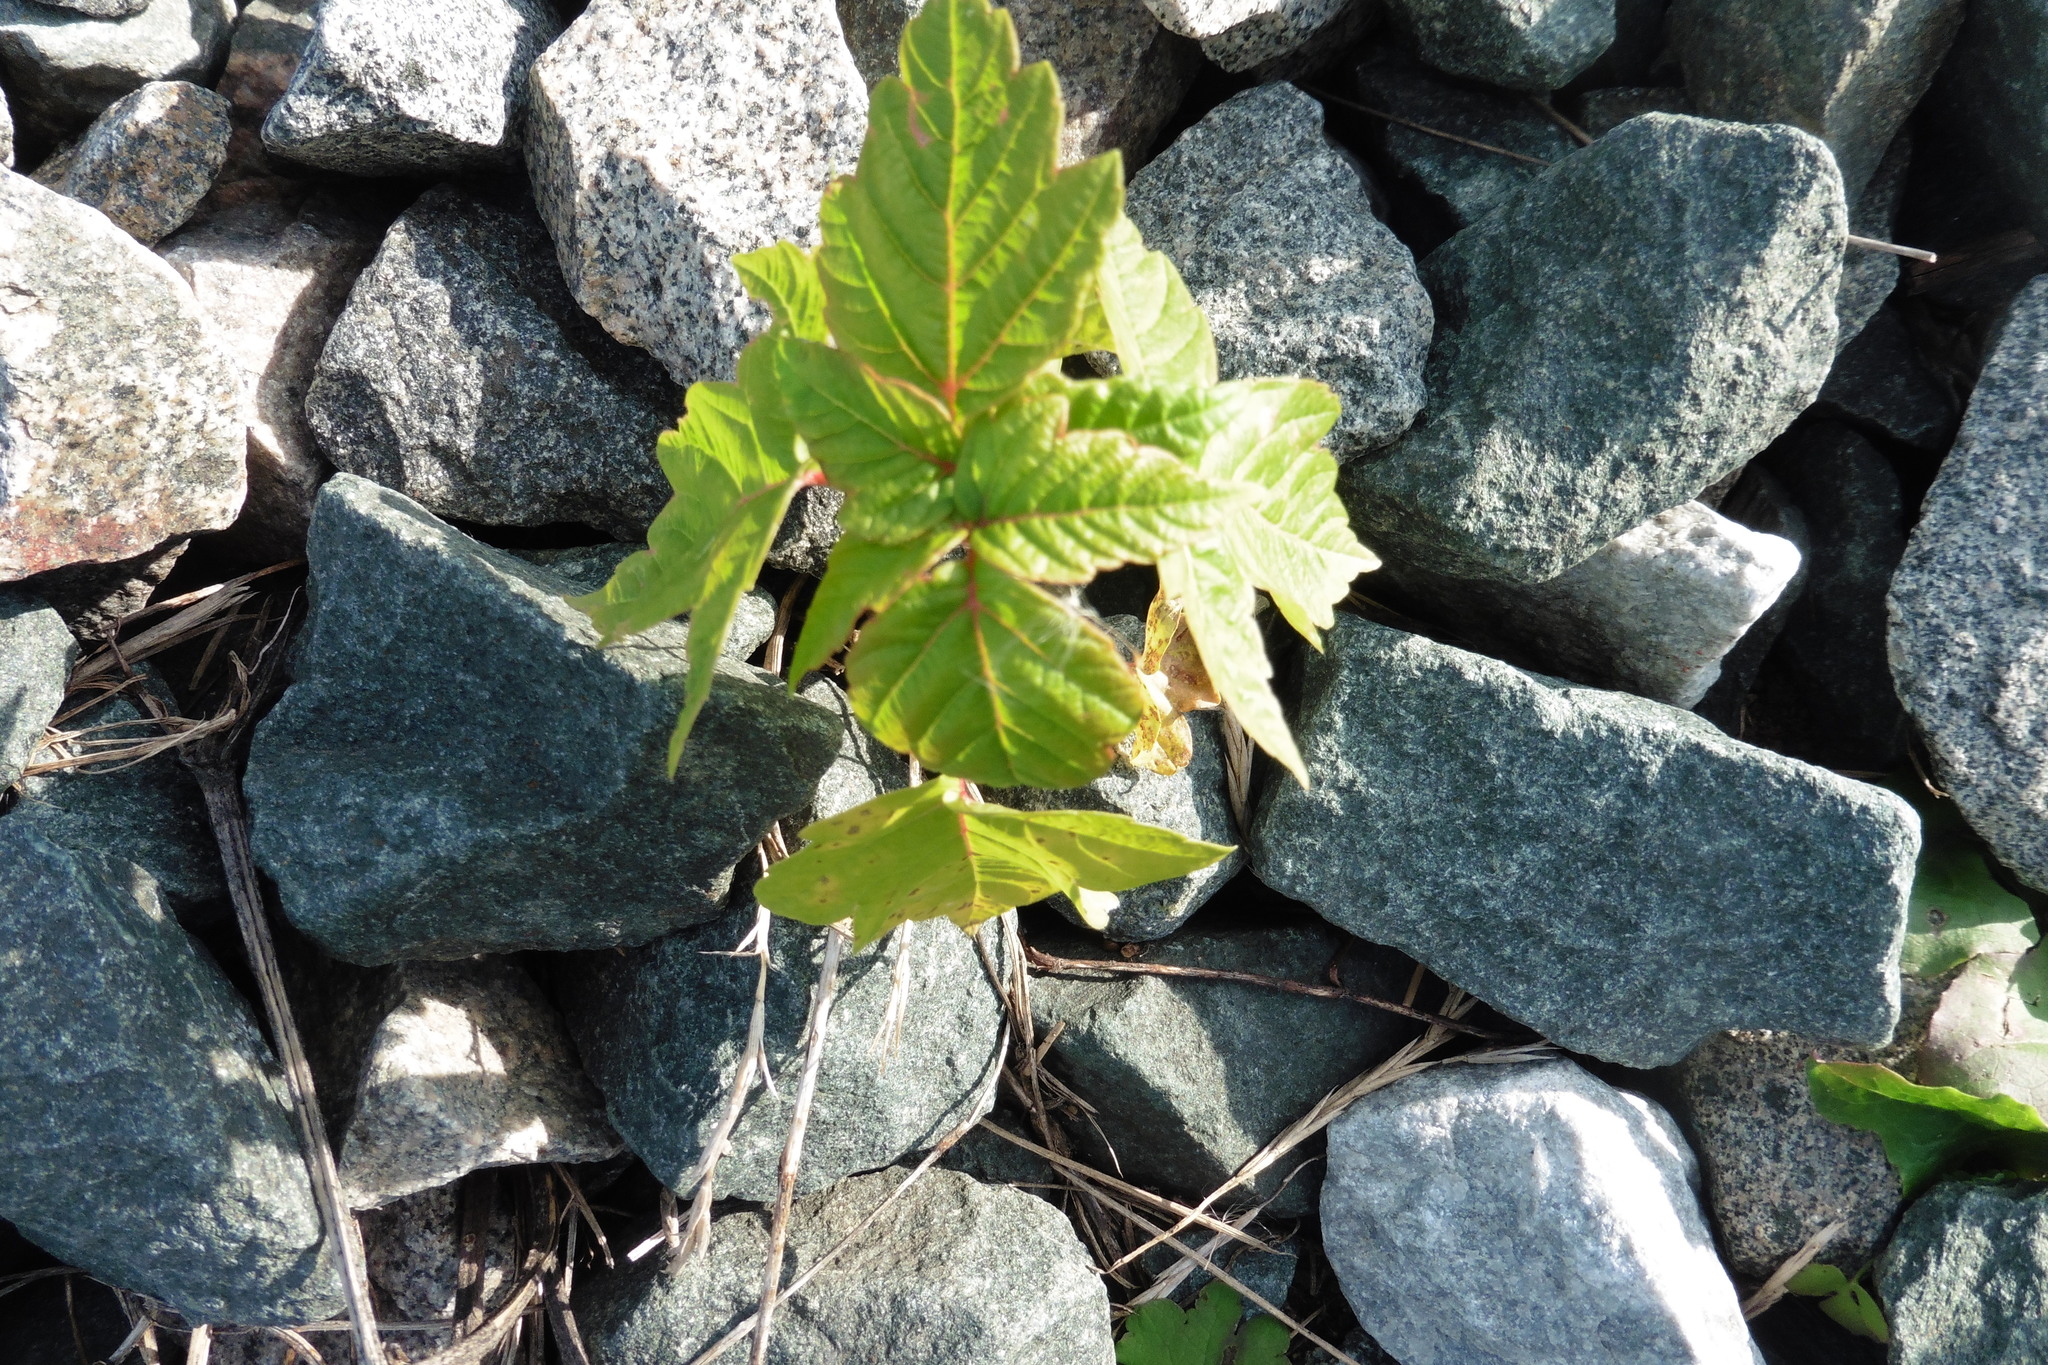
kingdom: Plantae
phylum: Tracheophyta
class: Magnoliopsida
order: Sapindales
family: Sapindaceae
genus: Acer
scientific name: Acer negundo
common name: Ashleaf maple
